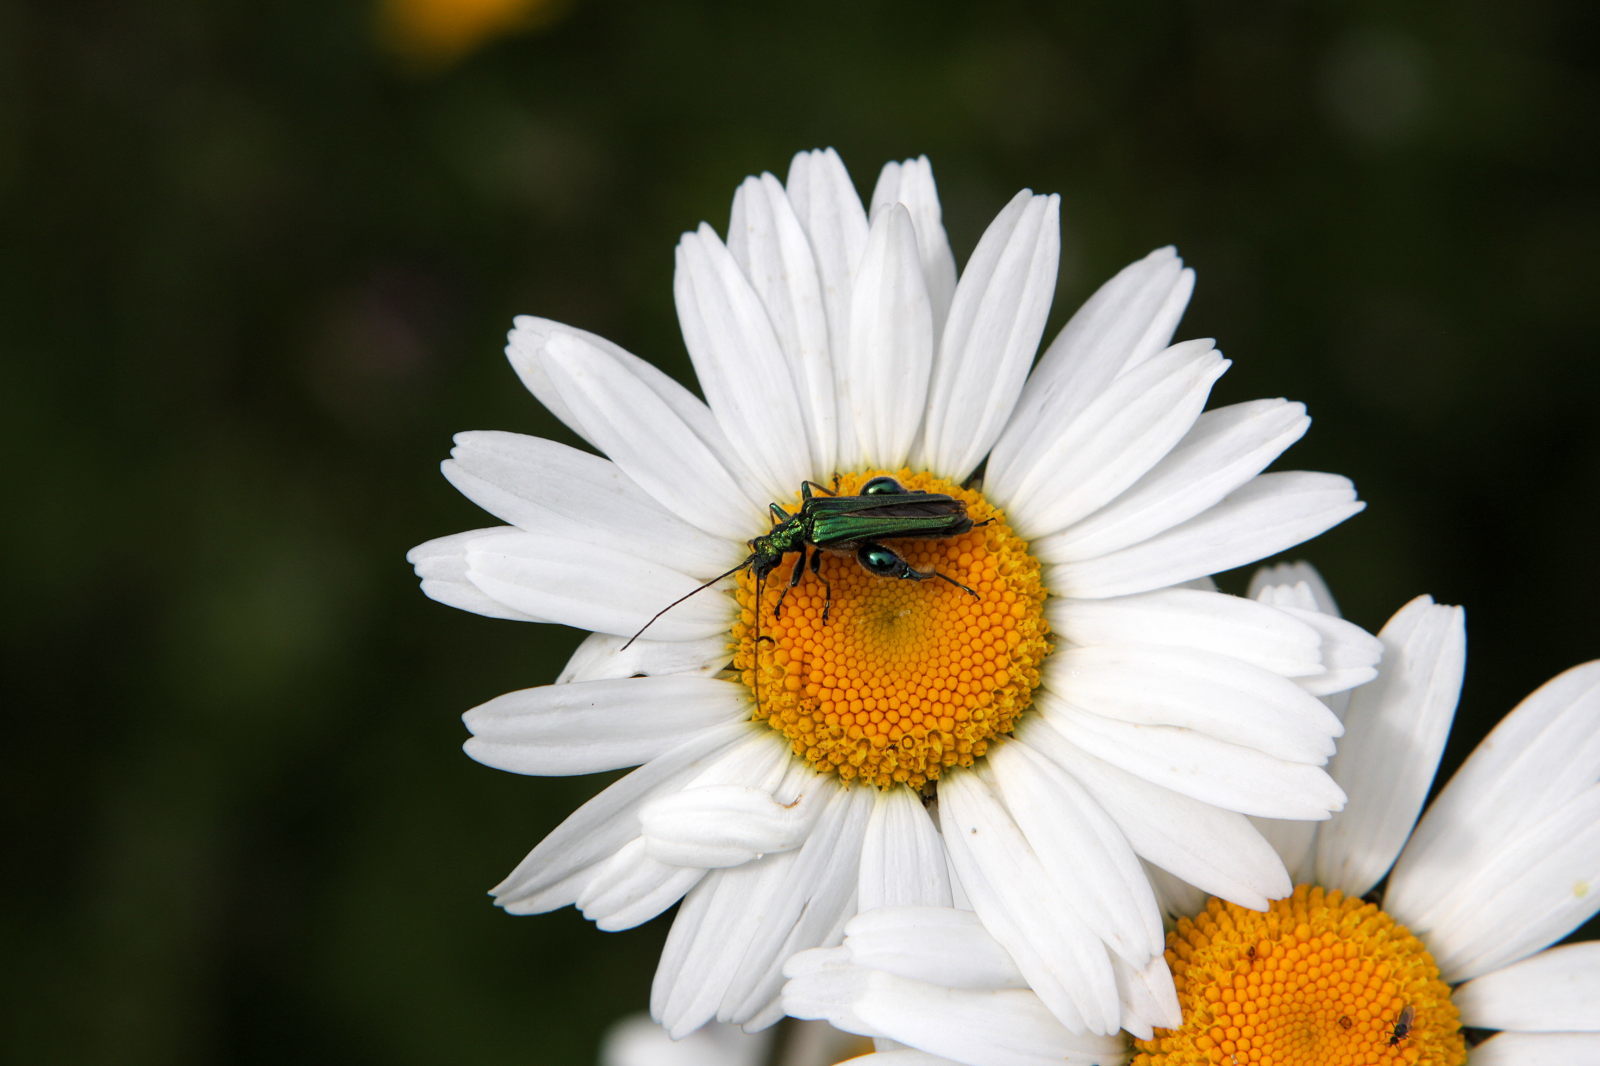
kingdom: Animalia
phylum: Arthropoda
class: Insecta
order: Coleoptera
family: Oedemeridae
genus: Oedemera
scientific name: Oedemera nobilis
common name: Swollen-thighed beetle
